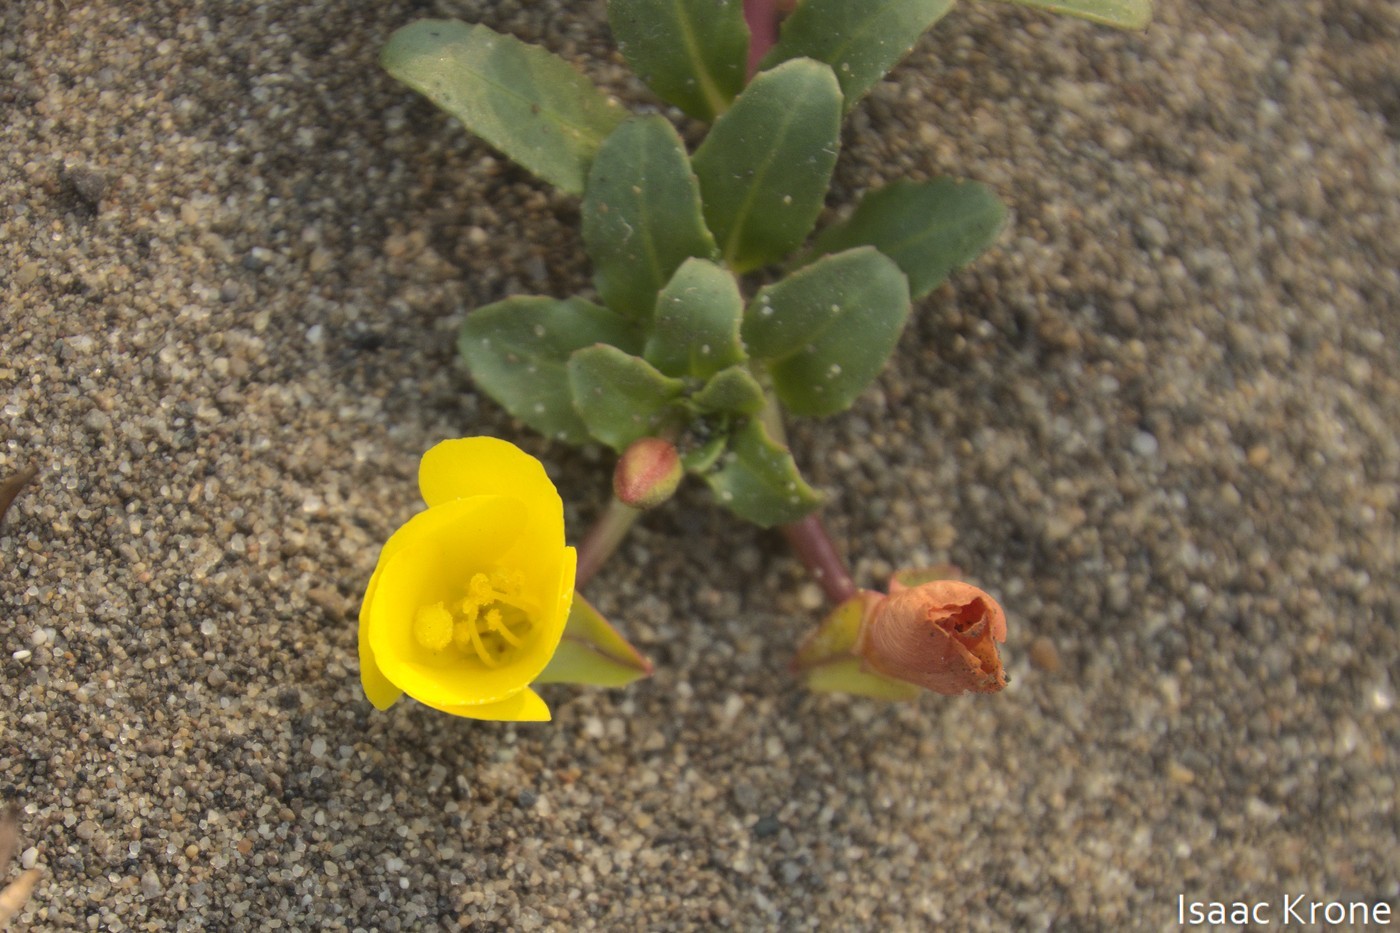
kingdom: Plantae
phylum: Tracheophyta
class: Magnoliopsida
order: Myrtales
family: Onagraceae
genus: Camissoniopsis
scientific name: Camissoniopsis cheiranthifolia
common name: Beach suncup
